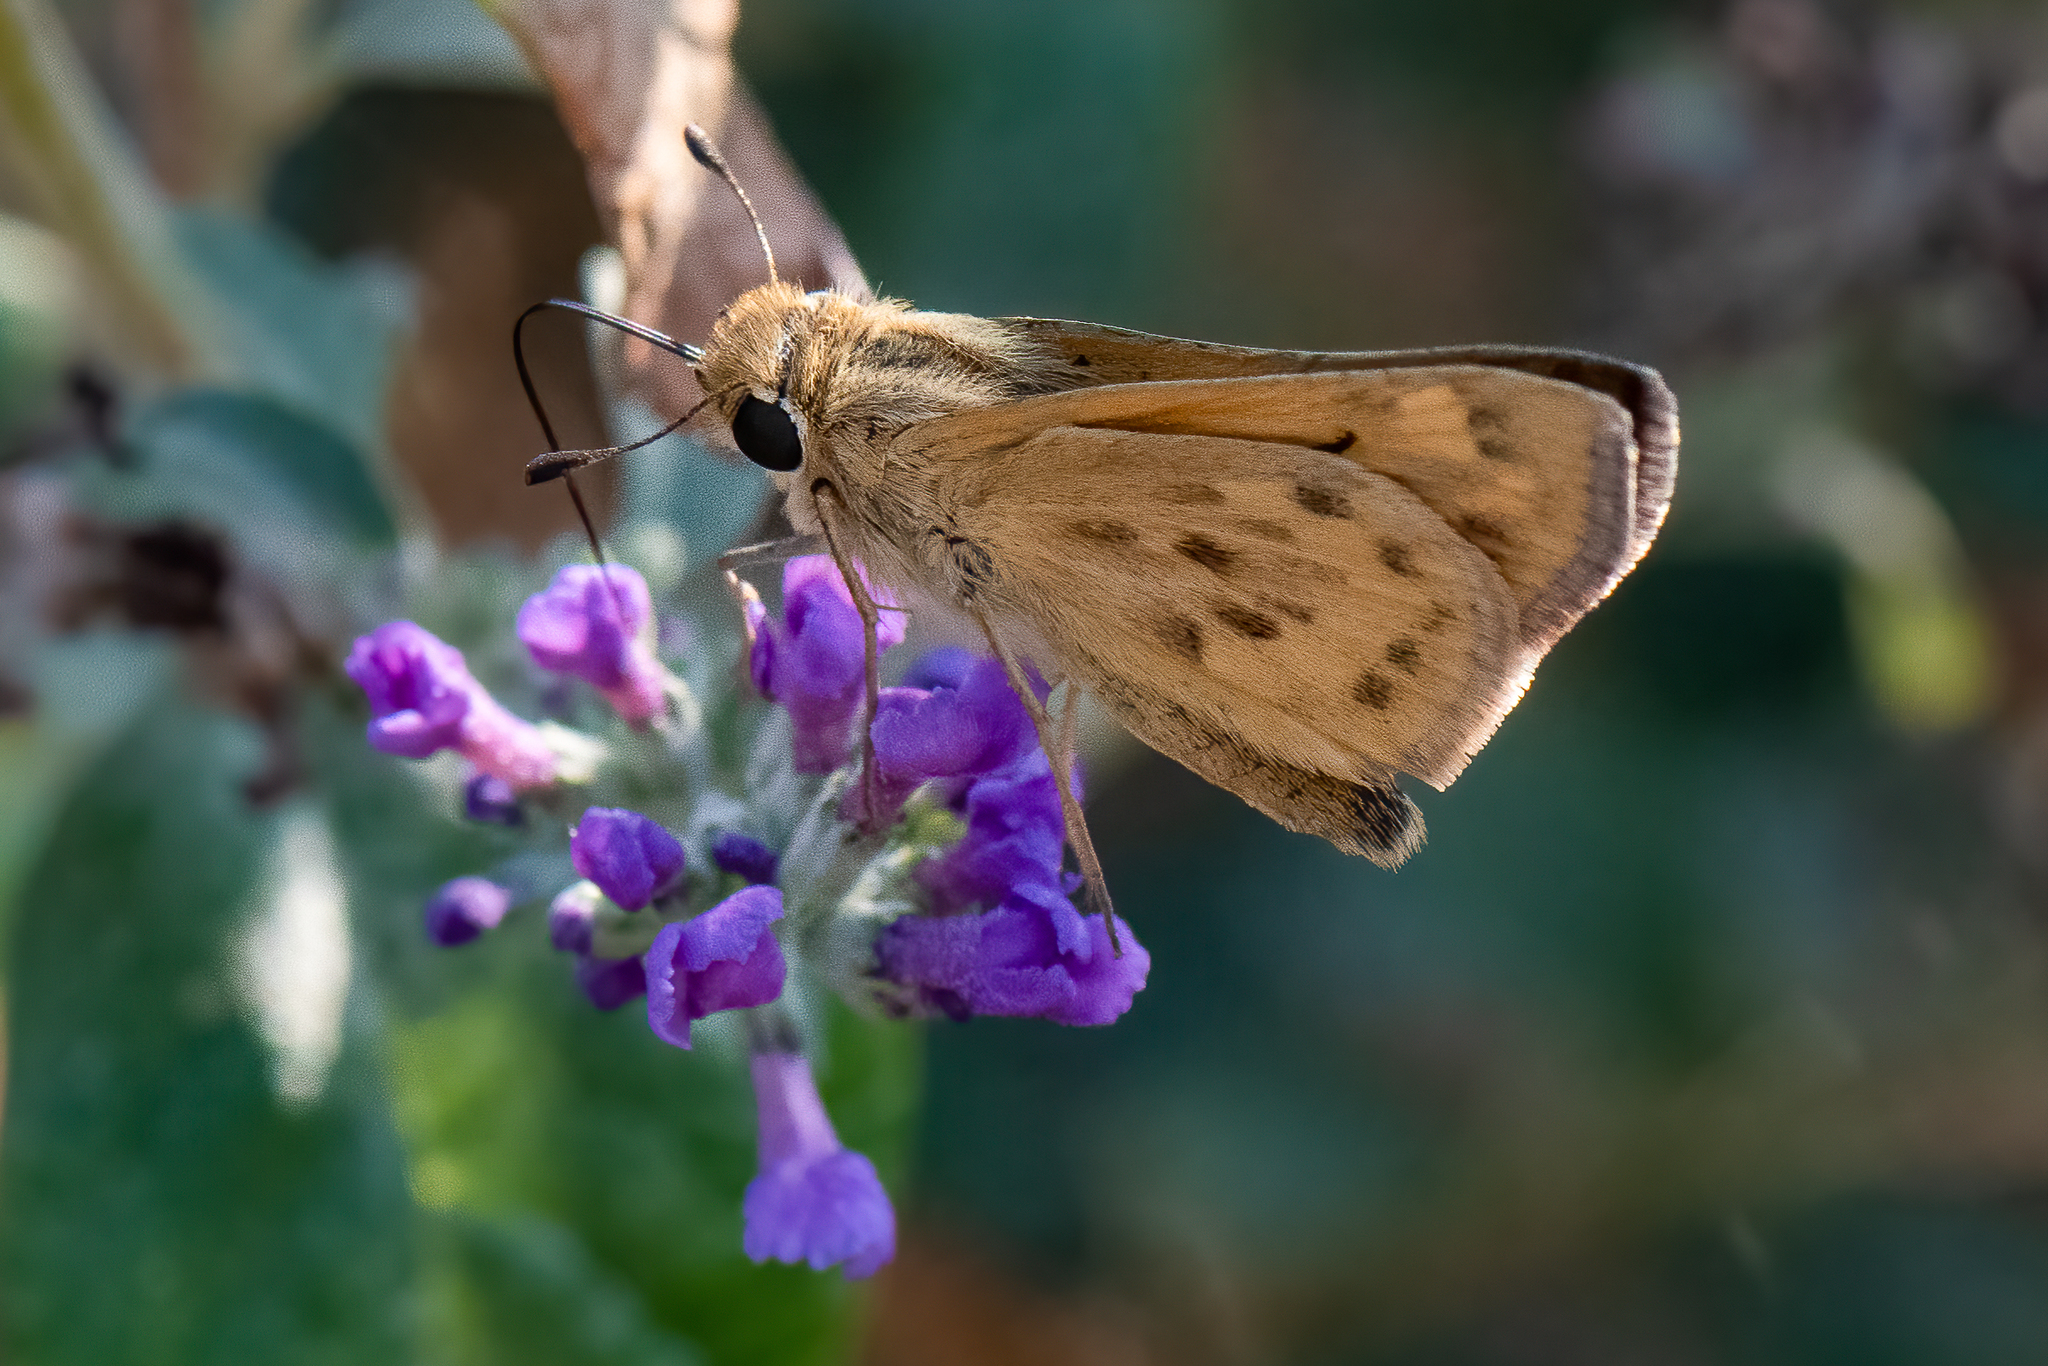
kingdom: Animalia
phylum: Arthropoda
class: Insecta
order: Lepidoptera
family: Hesperiidae
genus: Hylephila
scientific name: Hylephila phyleus
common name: Fiery skipper
